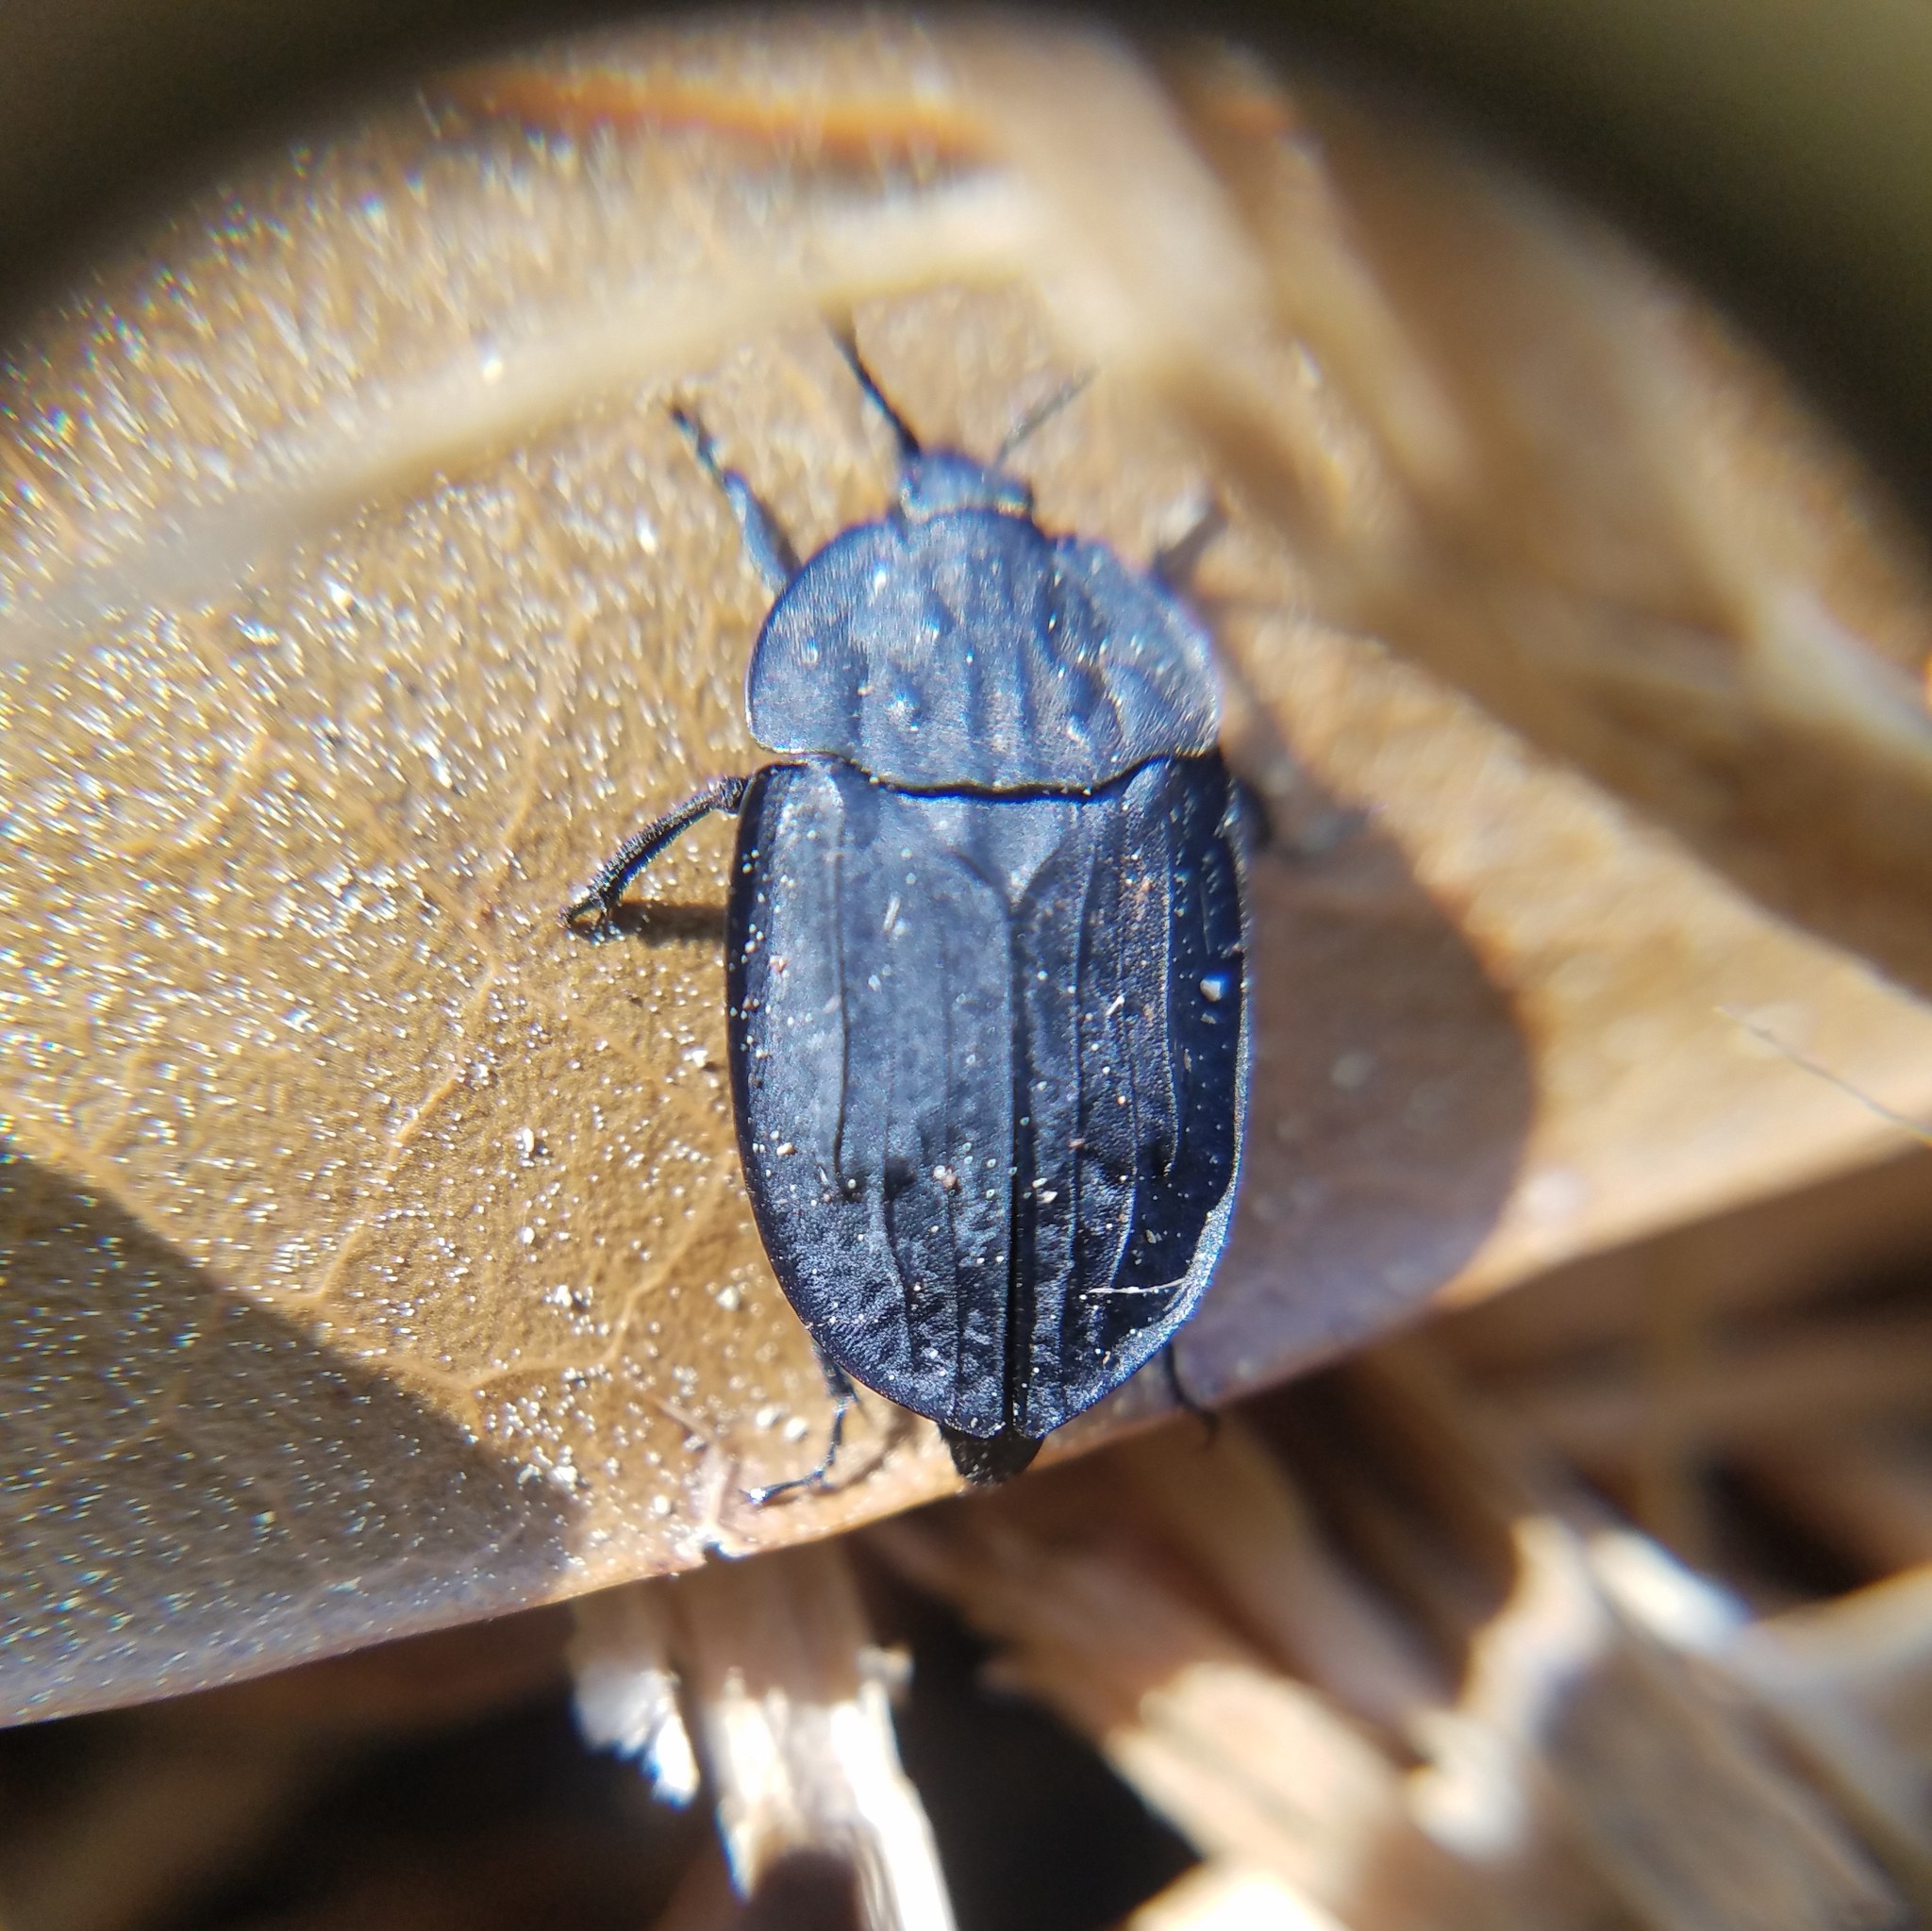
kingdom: Animalia
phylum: Arthropoda
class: Insecta
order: Coleoptera
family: Staphylinidae
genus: Oiceoptoma
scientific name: Oiceoptoma inaequale
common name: Ridged carrion beetle
